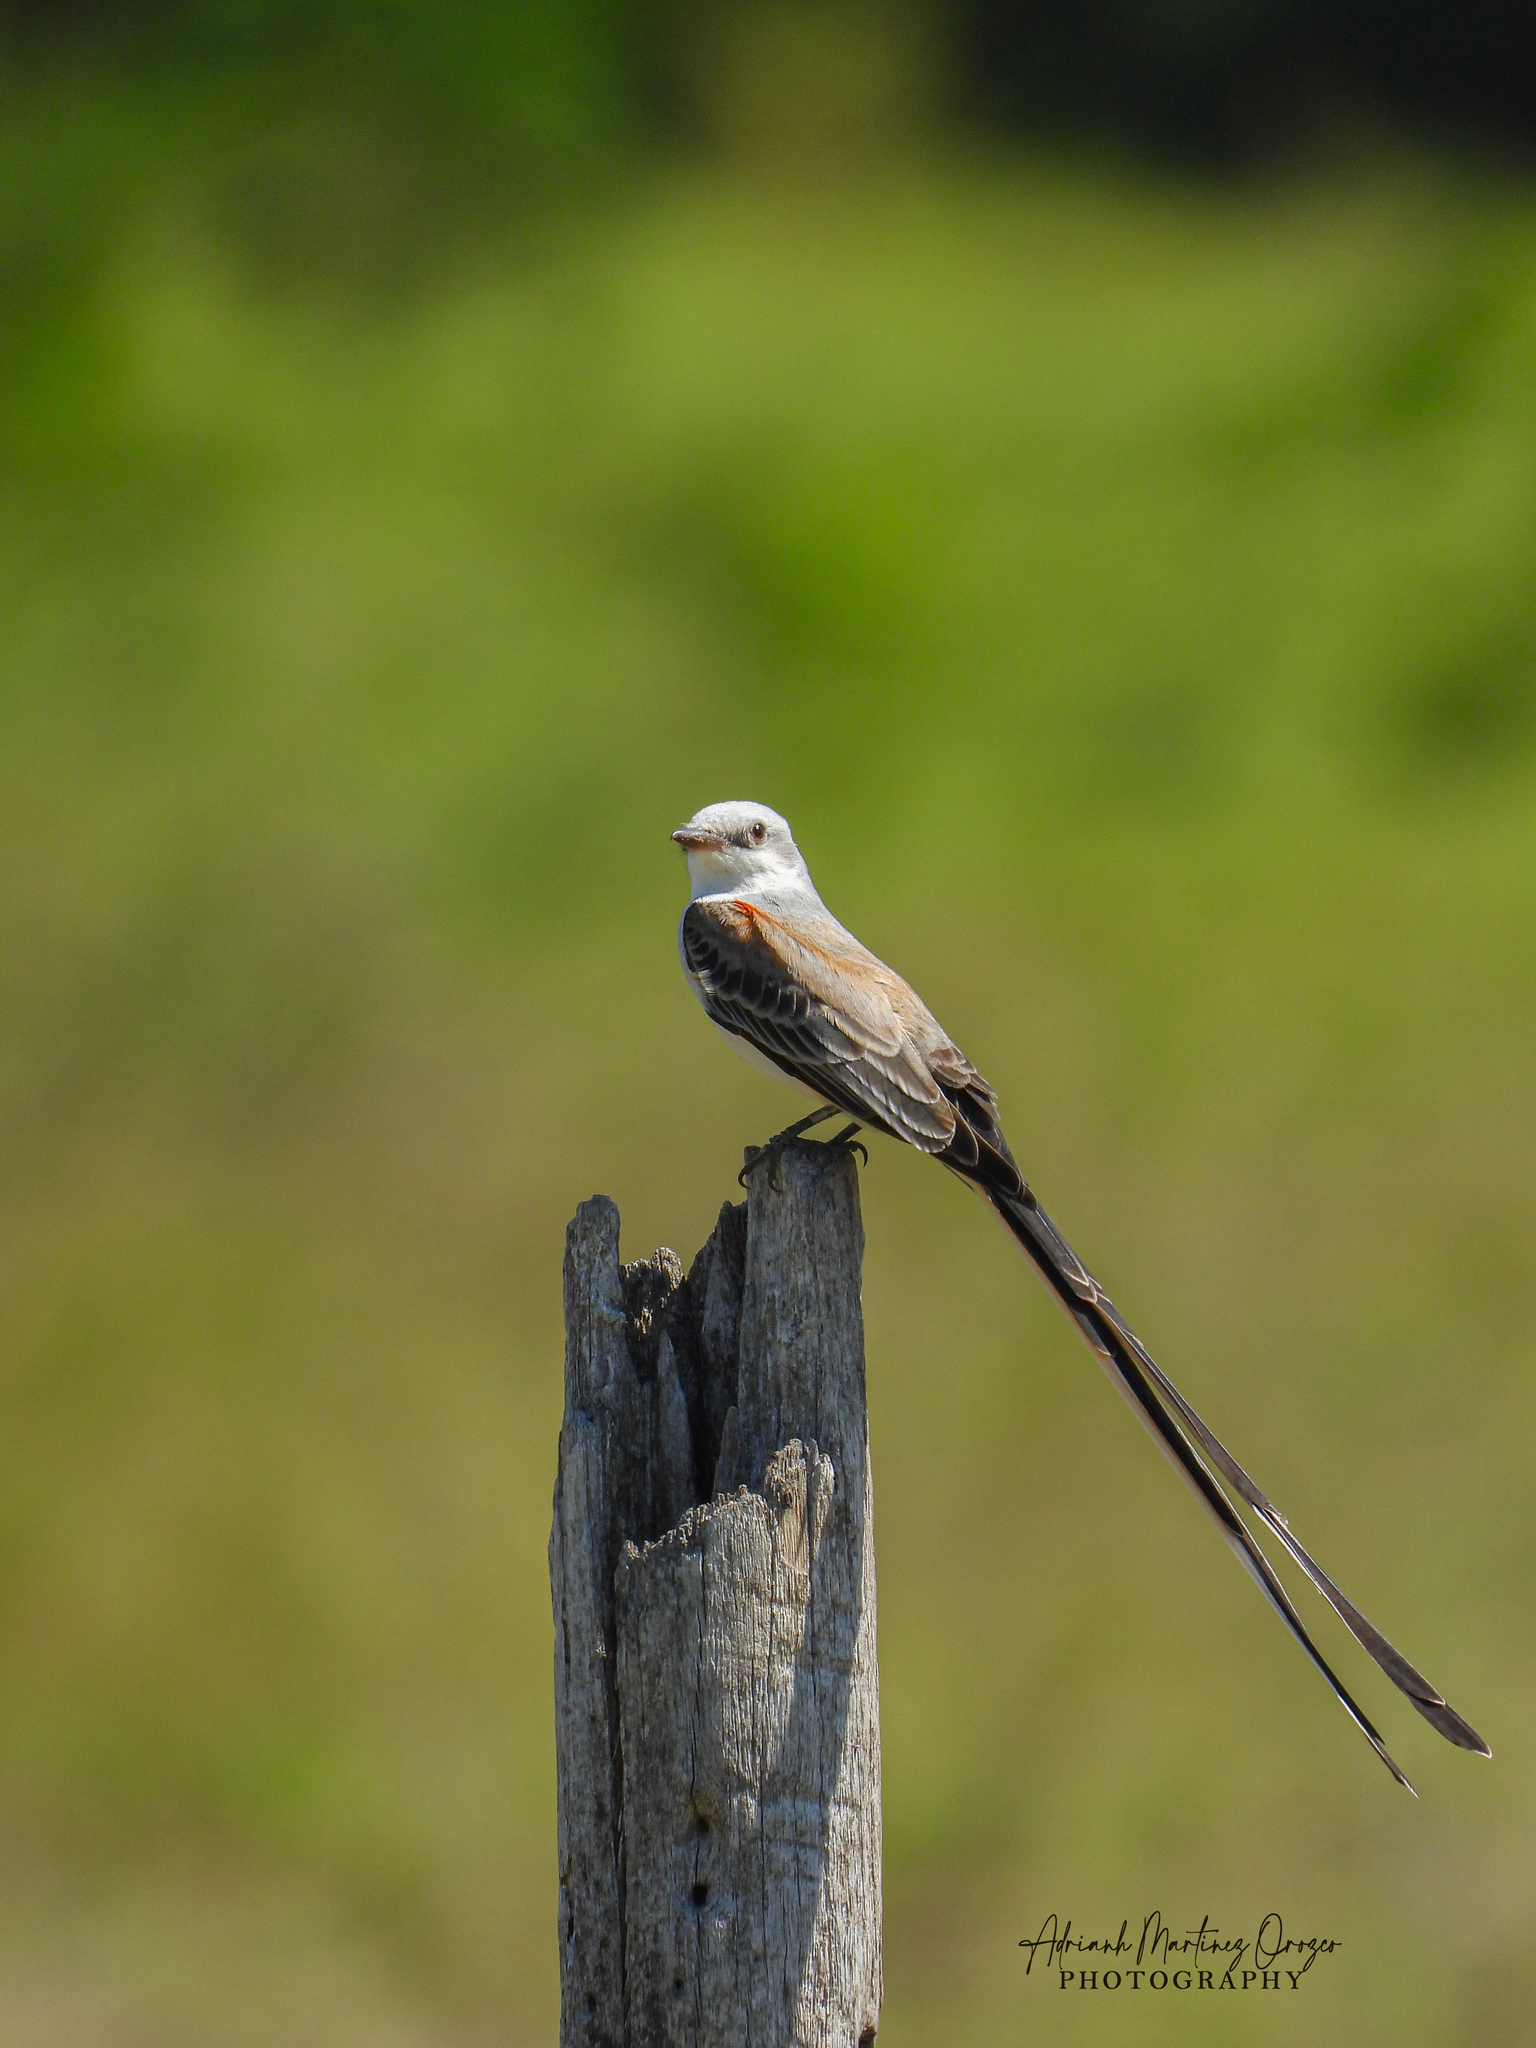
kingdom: Animalia
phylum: Chordata
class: Aves
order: Passeriformes
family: Tyrannidae
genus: Tyrannus
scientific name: Tyrannus forficatus
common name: Scissor-tailed flycatcher
